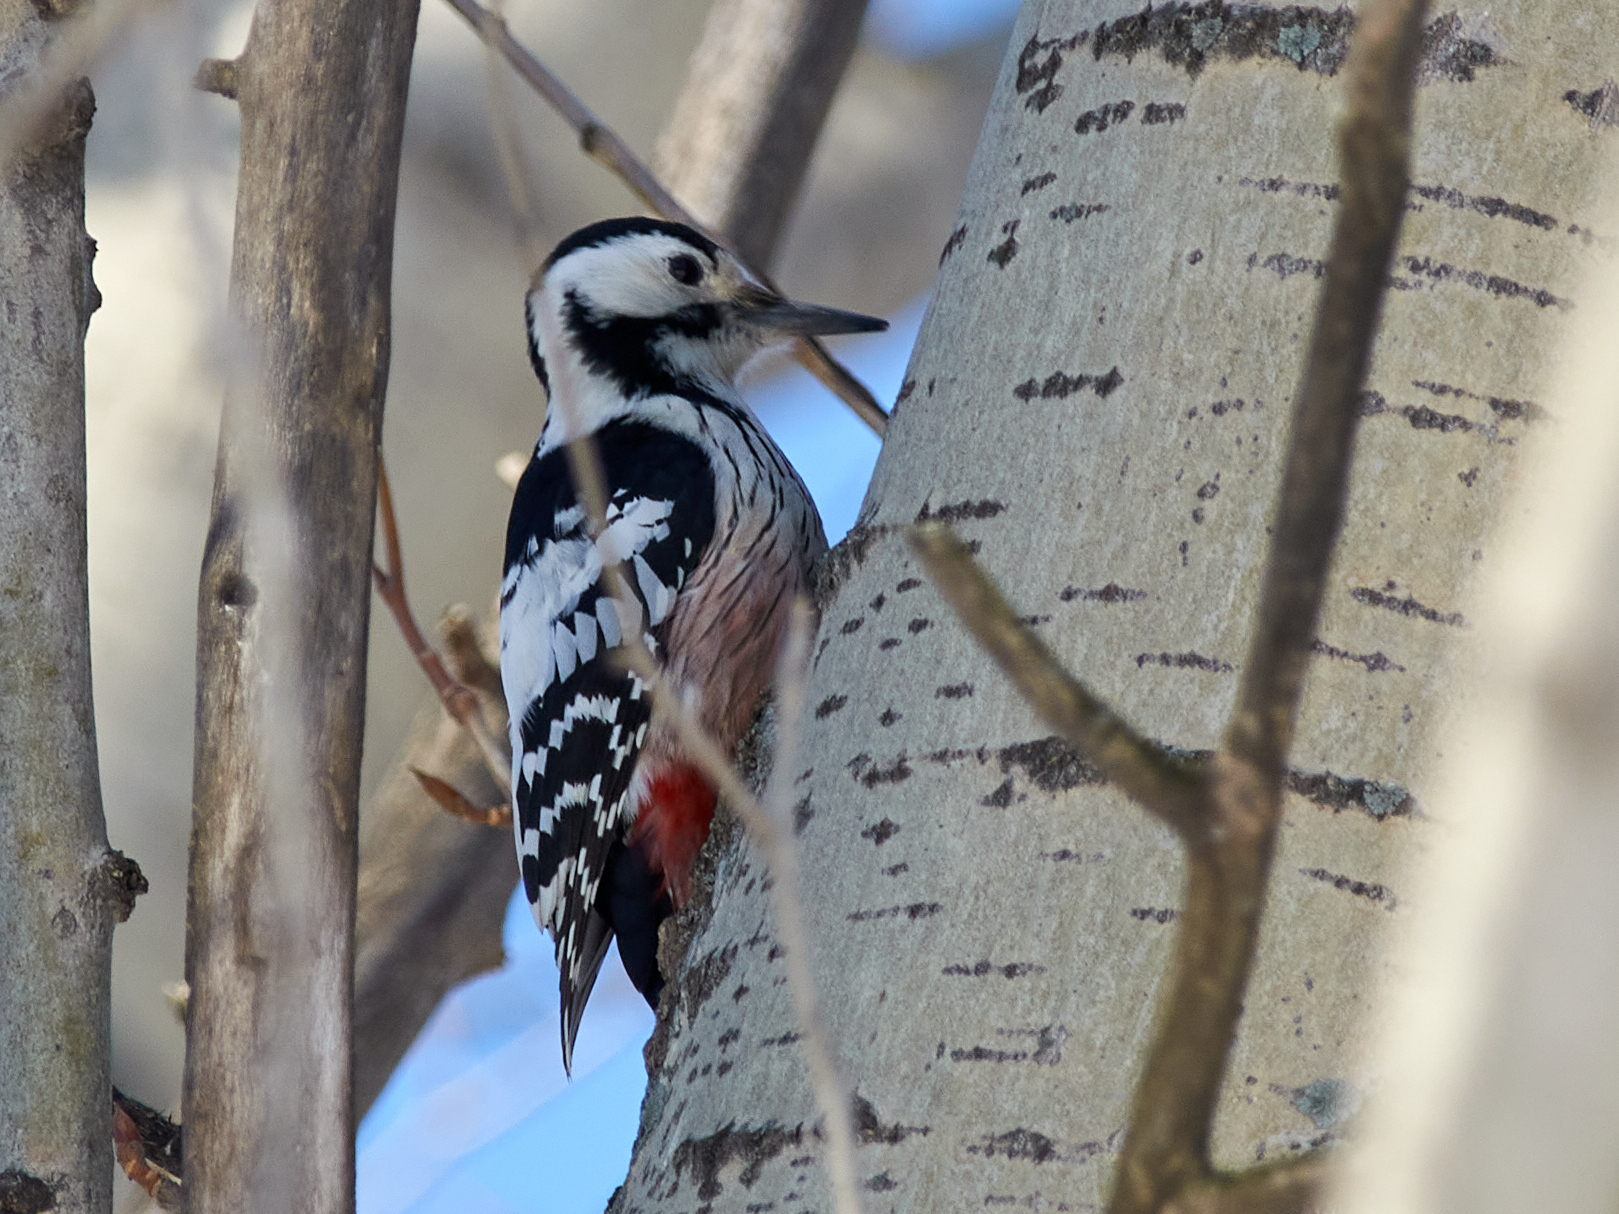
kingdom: Animalia
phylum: Chordata
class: Aves
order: Piciformes
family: Picidae
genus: Dendrocopos
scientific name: Dendrocopos leucotos
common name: White-backed woodpecker
